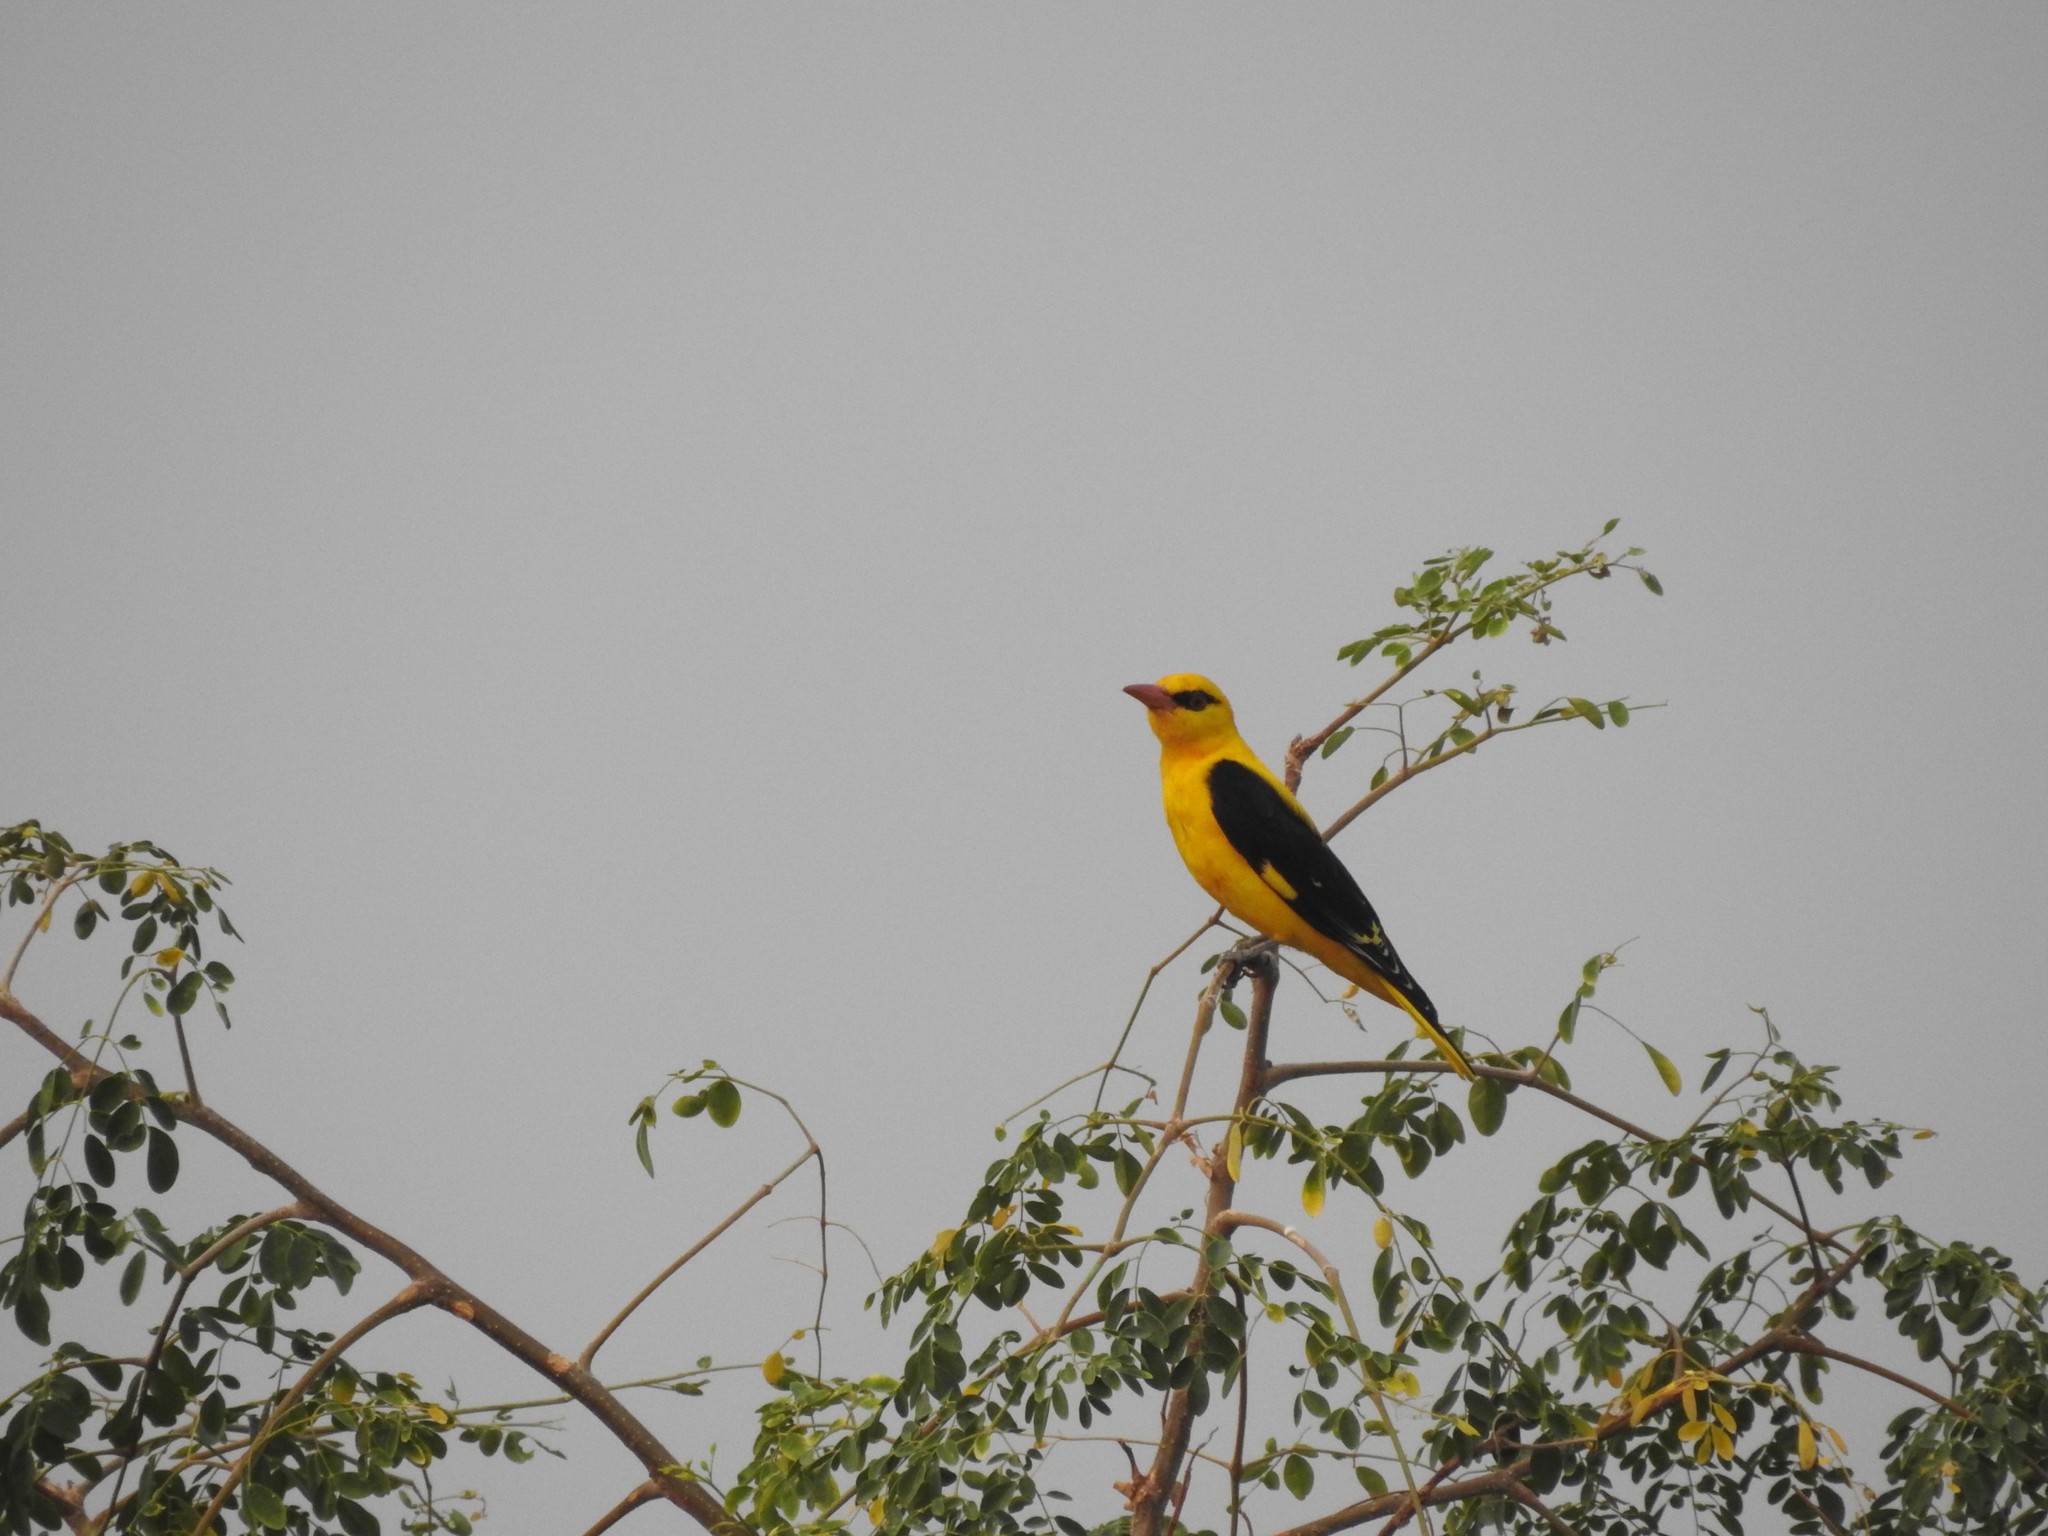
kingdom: Animalia
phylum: Chordata
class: Aves
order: Passeriformes
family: Oriolidae
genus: Oriolus
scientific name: Oriolus kundoo
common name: Indian golden oriole
